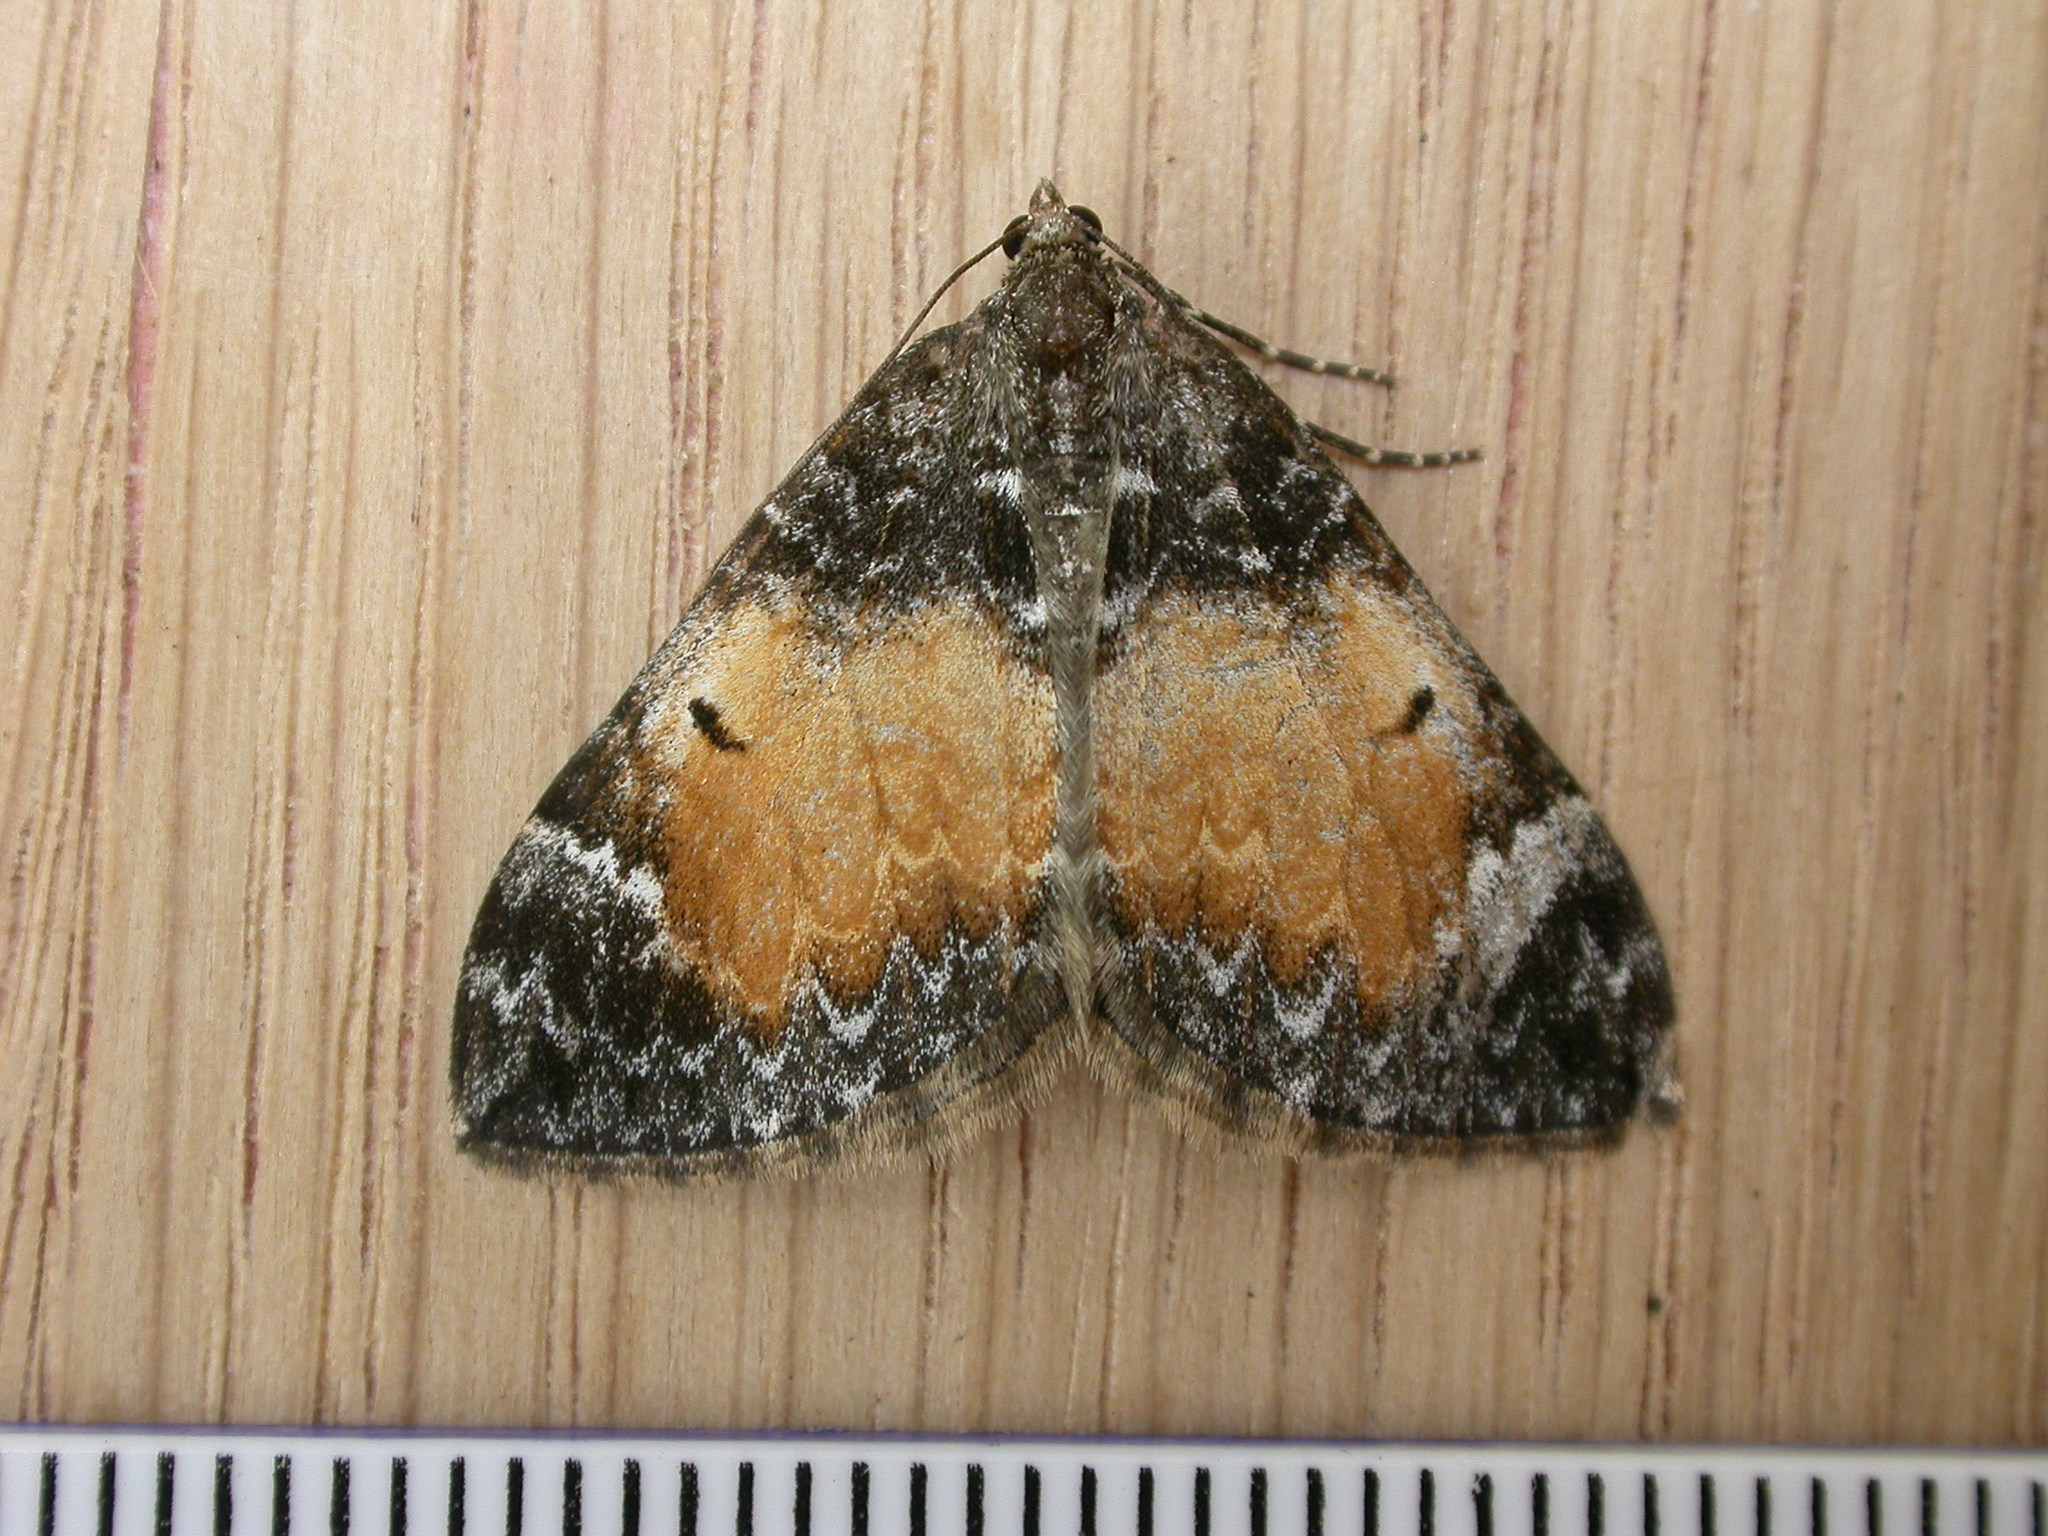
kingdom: Animalia
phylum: Arthropoda
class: Insecta
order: Lepidoptera
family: Geometridae
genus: Dysstroma
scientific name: Dysstroma truncata
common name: Common marbled carpet
